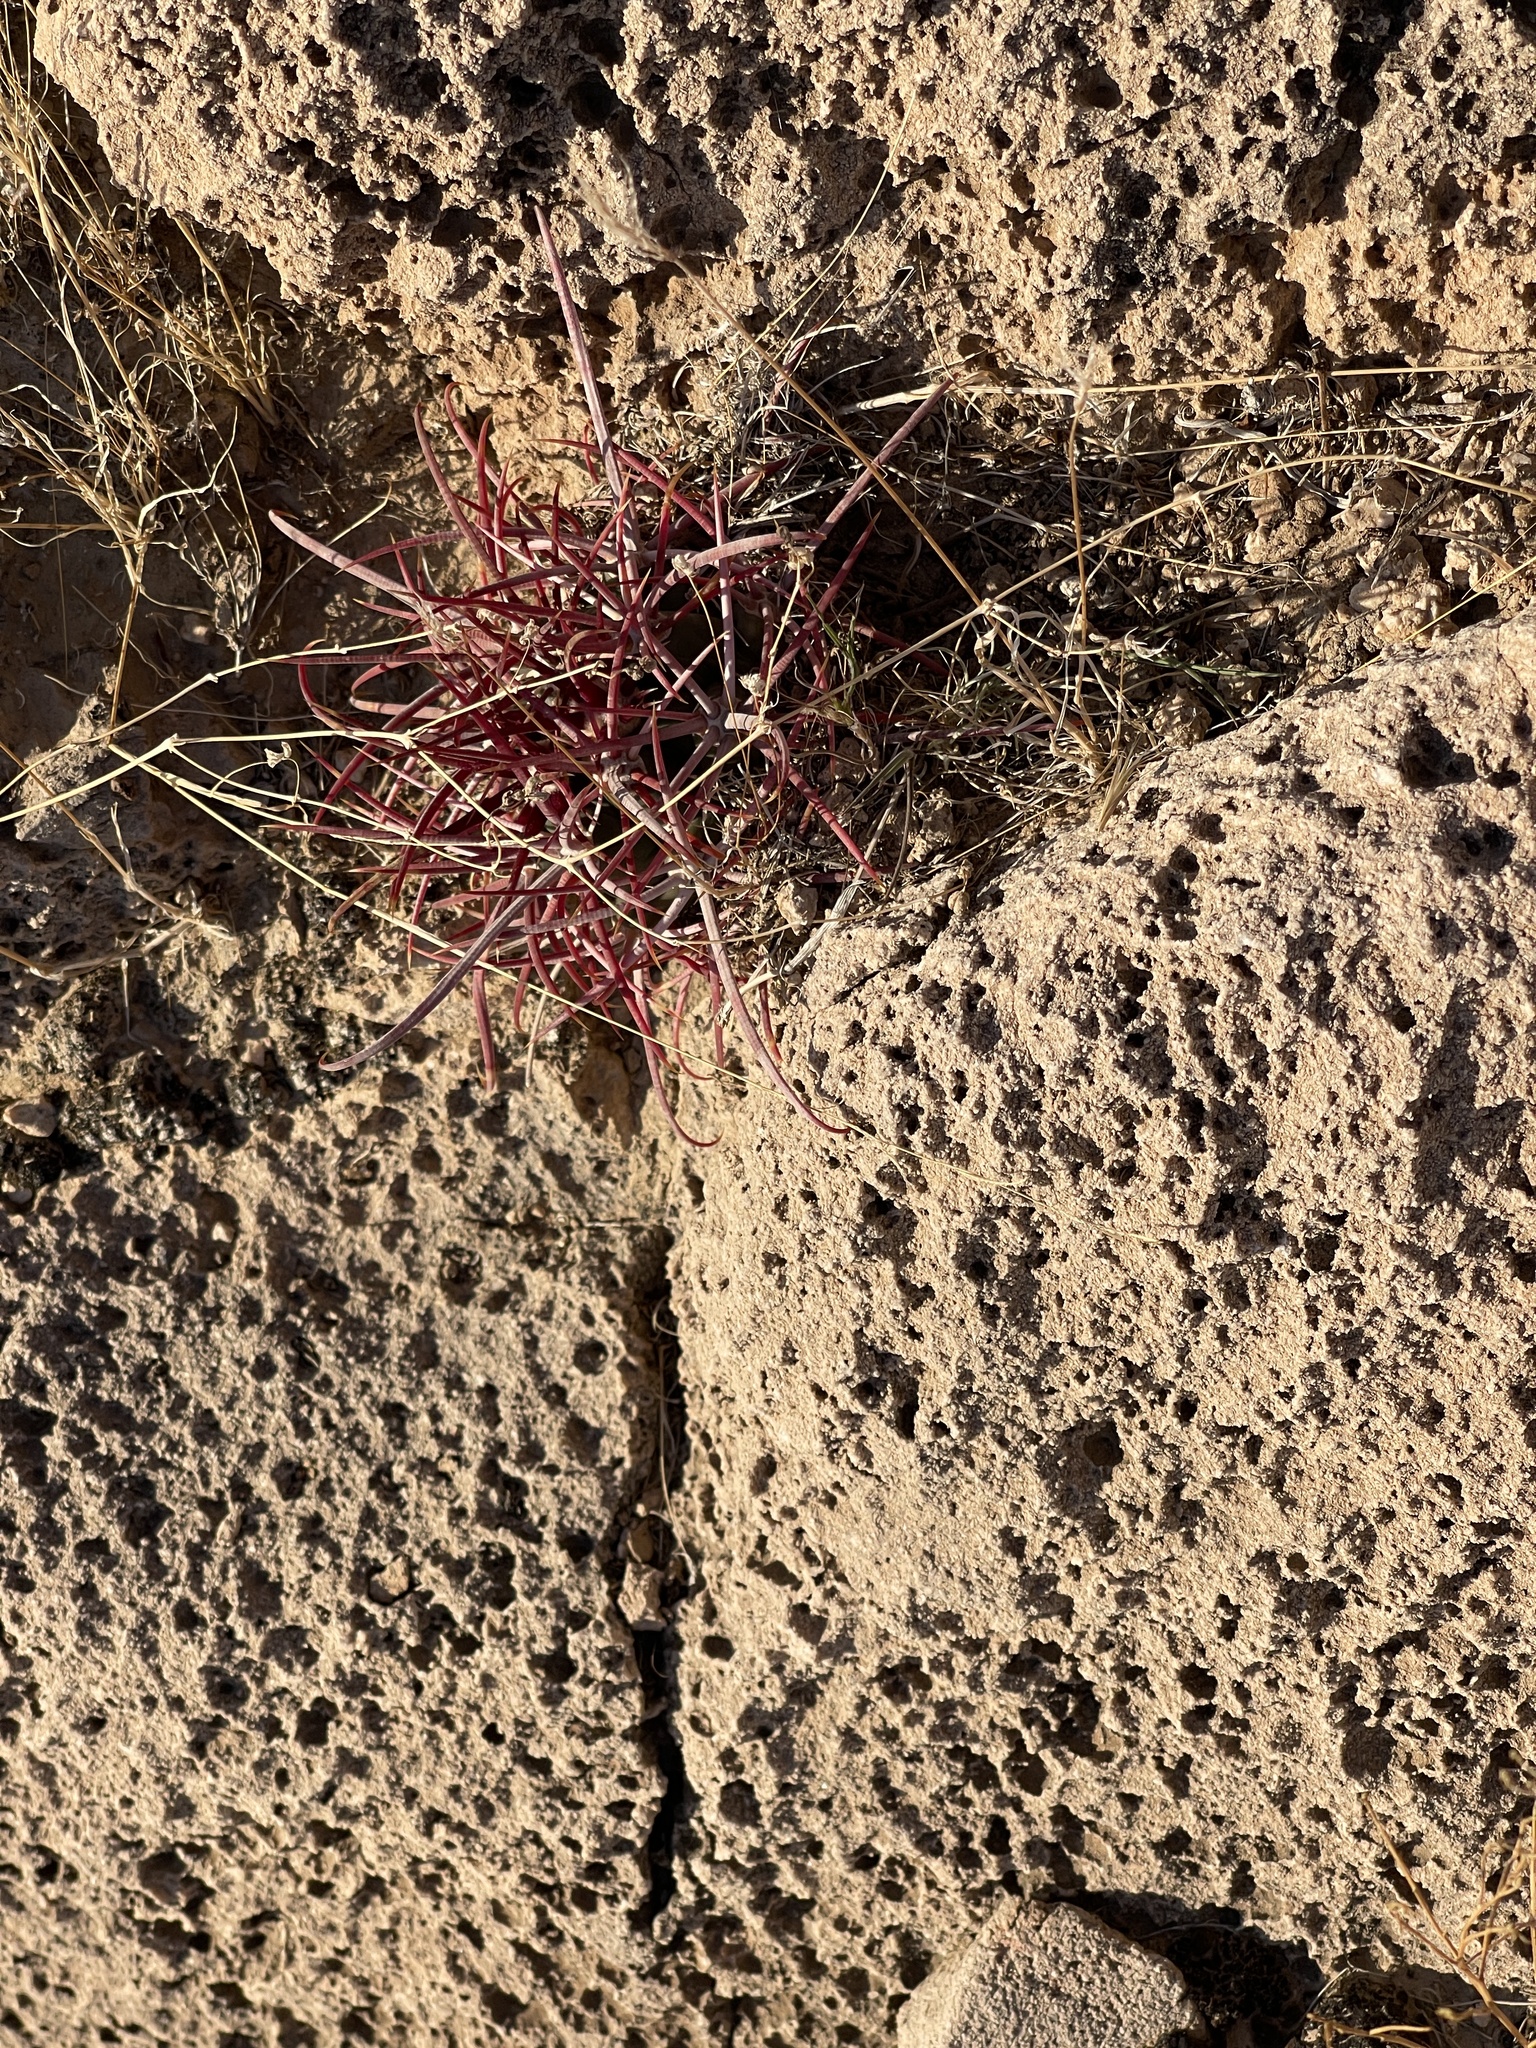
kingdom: Plantae
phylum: Tracheophyta
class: Magnoliopsida
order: Caryophyllales
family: Cactaceae
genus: Ferocactus
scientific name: Ferocactus cylindraceus
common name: California barrel cactus
